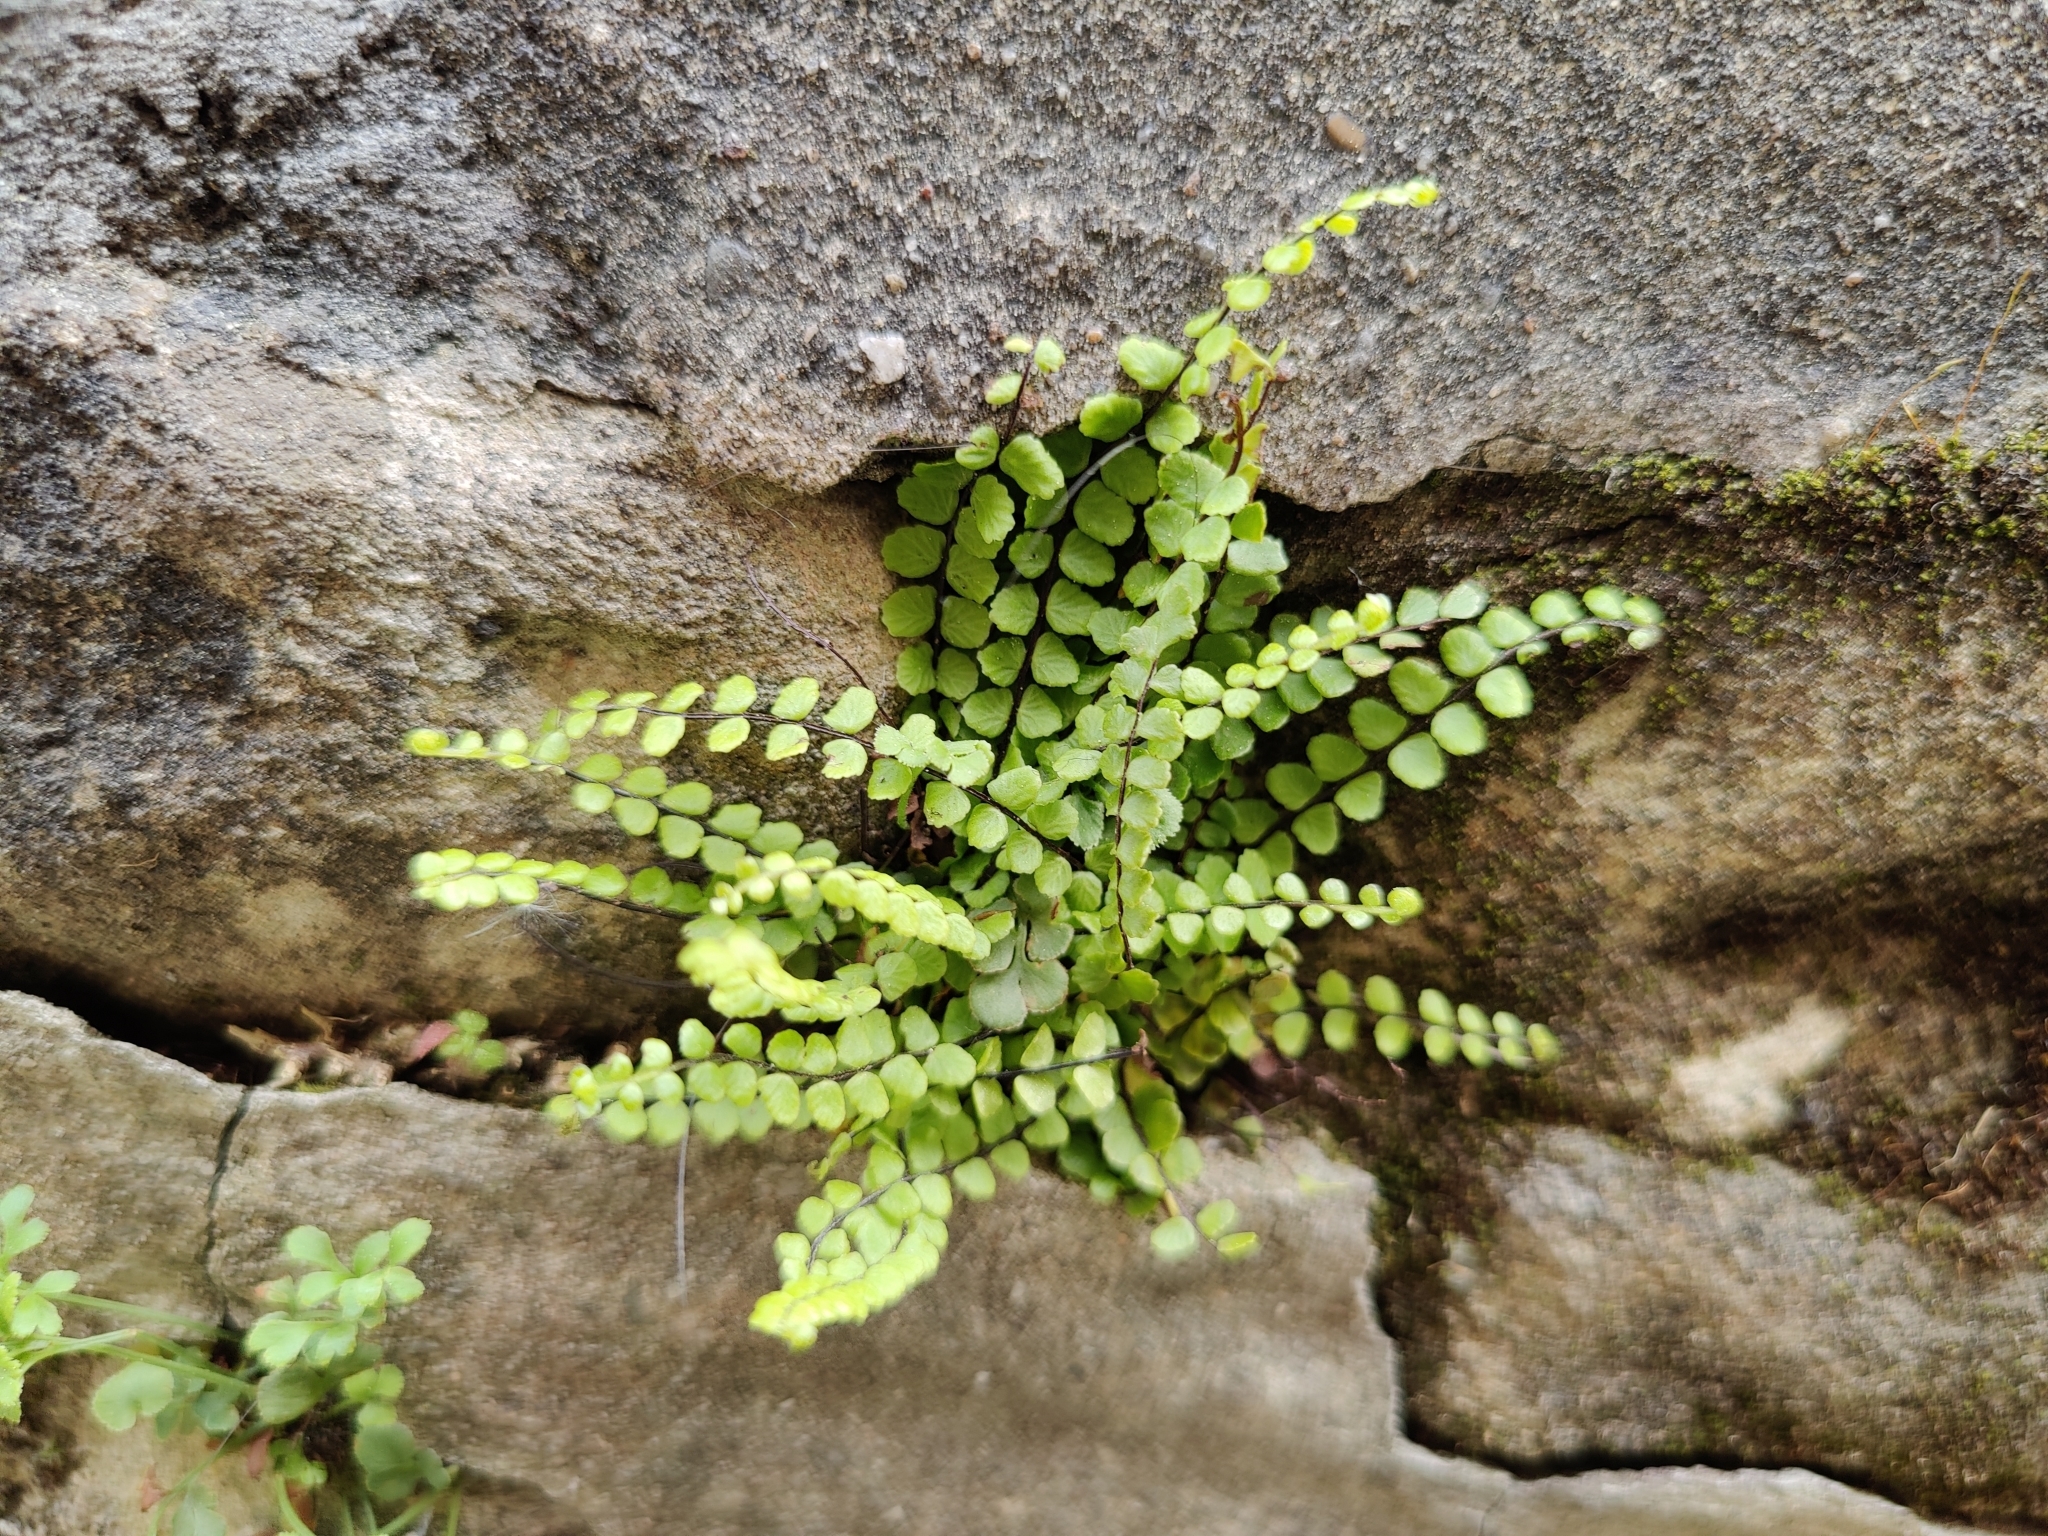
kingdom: Plantae
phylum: Tracheophyta
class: Polypodiopsida
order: Polypodiales
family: Aspleniaceae
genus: Asplenium
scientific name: Asplenium trichomanes
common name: Maidenhair spleenwort
